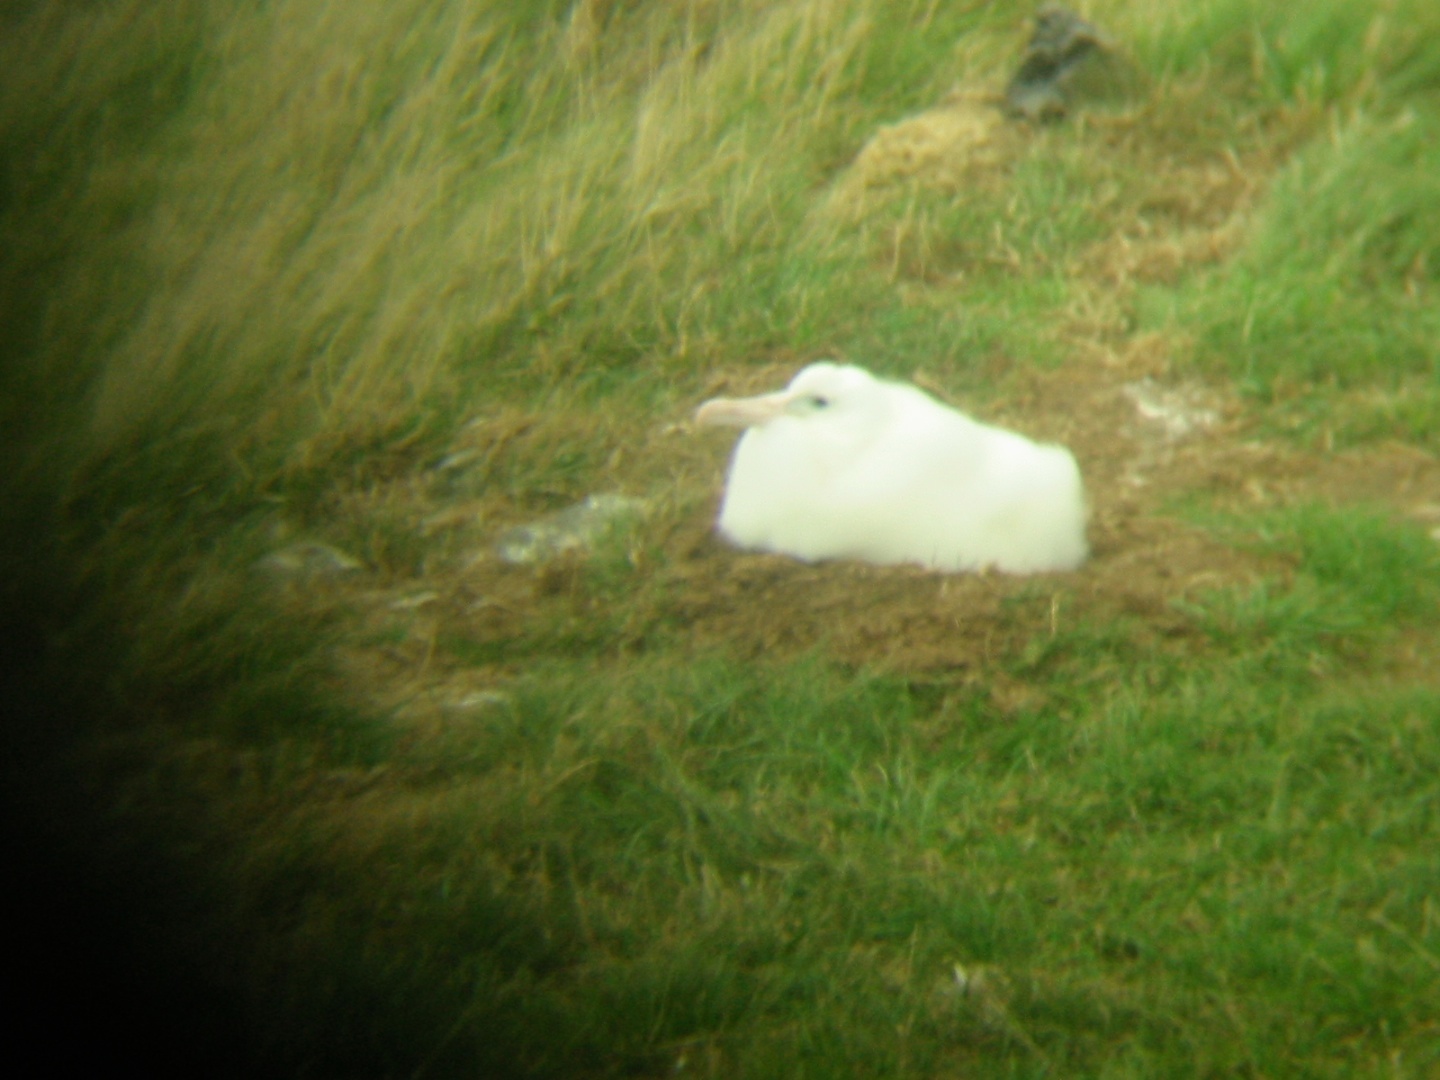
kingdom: Animalia
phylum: Chordata
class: Aves
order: Procellariiformes
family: Diomedeidae
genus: Diomedea
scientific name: Diomedea sanfordi
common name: Northern royal albatross
